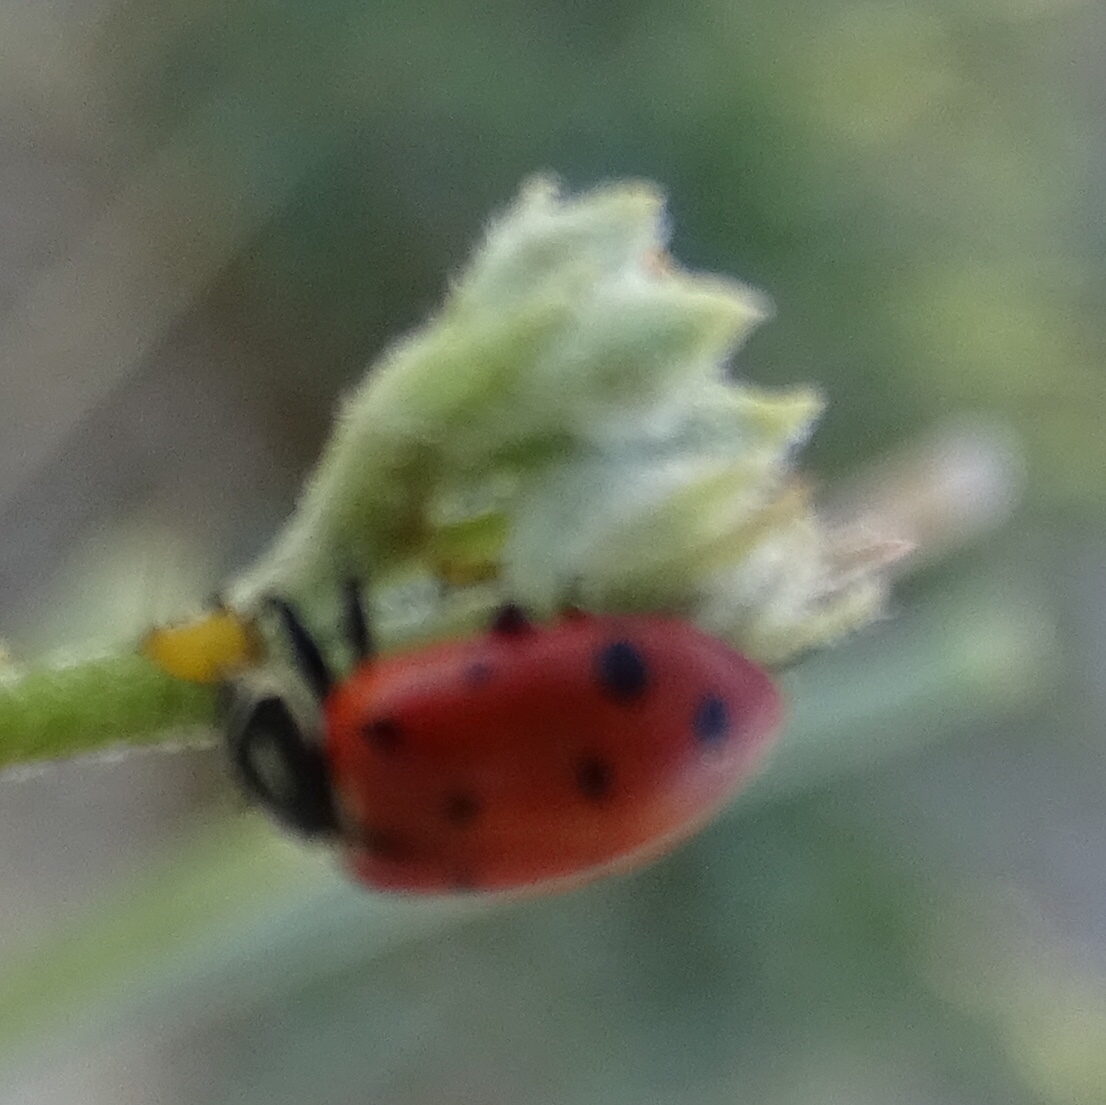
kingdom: Animalia
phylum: Arthropoda
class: Insecta
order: Coleoptera
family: Coccinellidae
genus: Hippodamia
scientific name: Hippodamia convergens
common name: Convergent lady beetle
